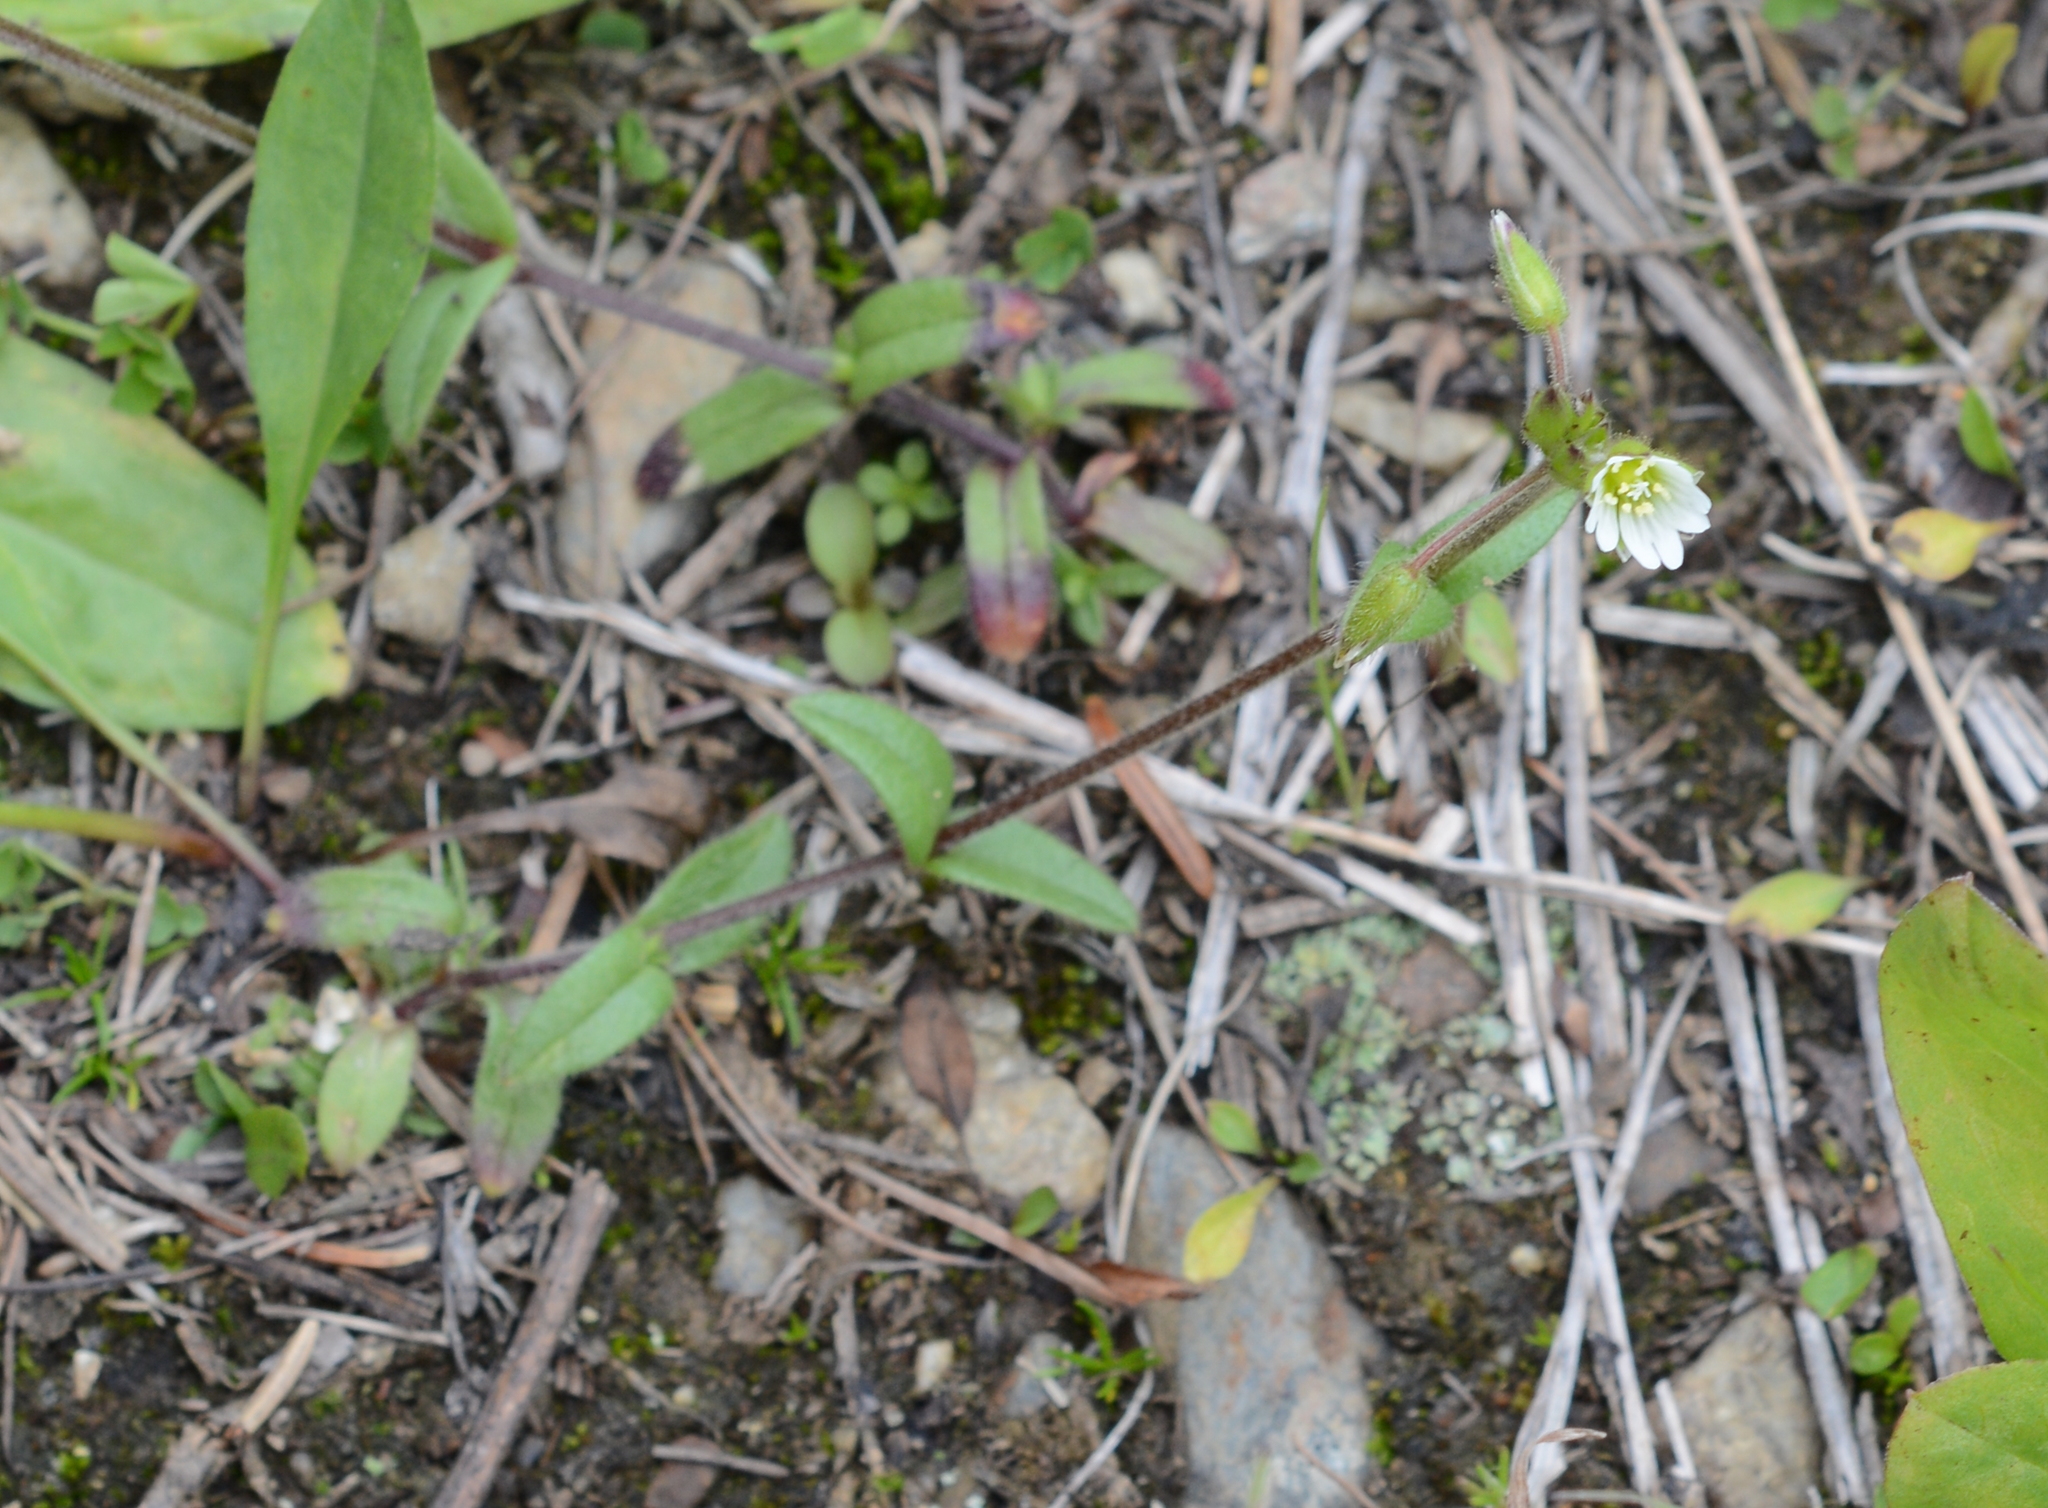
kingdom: Plantae
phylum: Tracheophyta
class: Magnoliopsida
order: Caryophyllales
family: Caryophyllaceae
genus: Cerastium
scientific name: Cerastium fontanum
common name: Common mouse-ear
